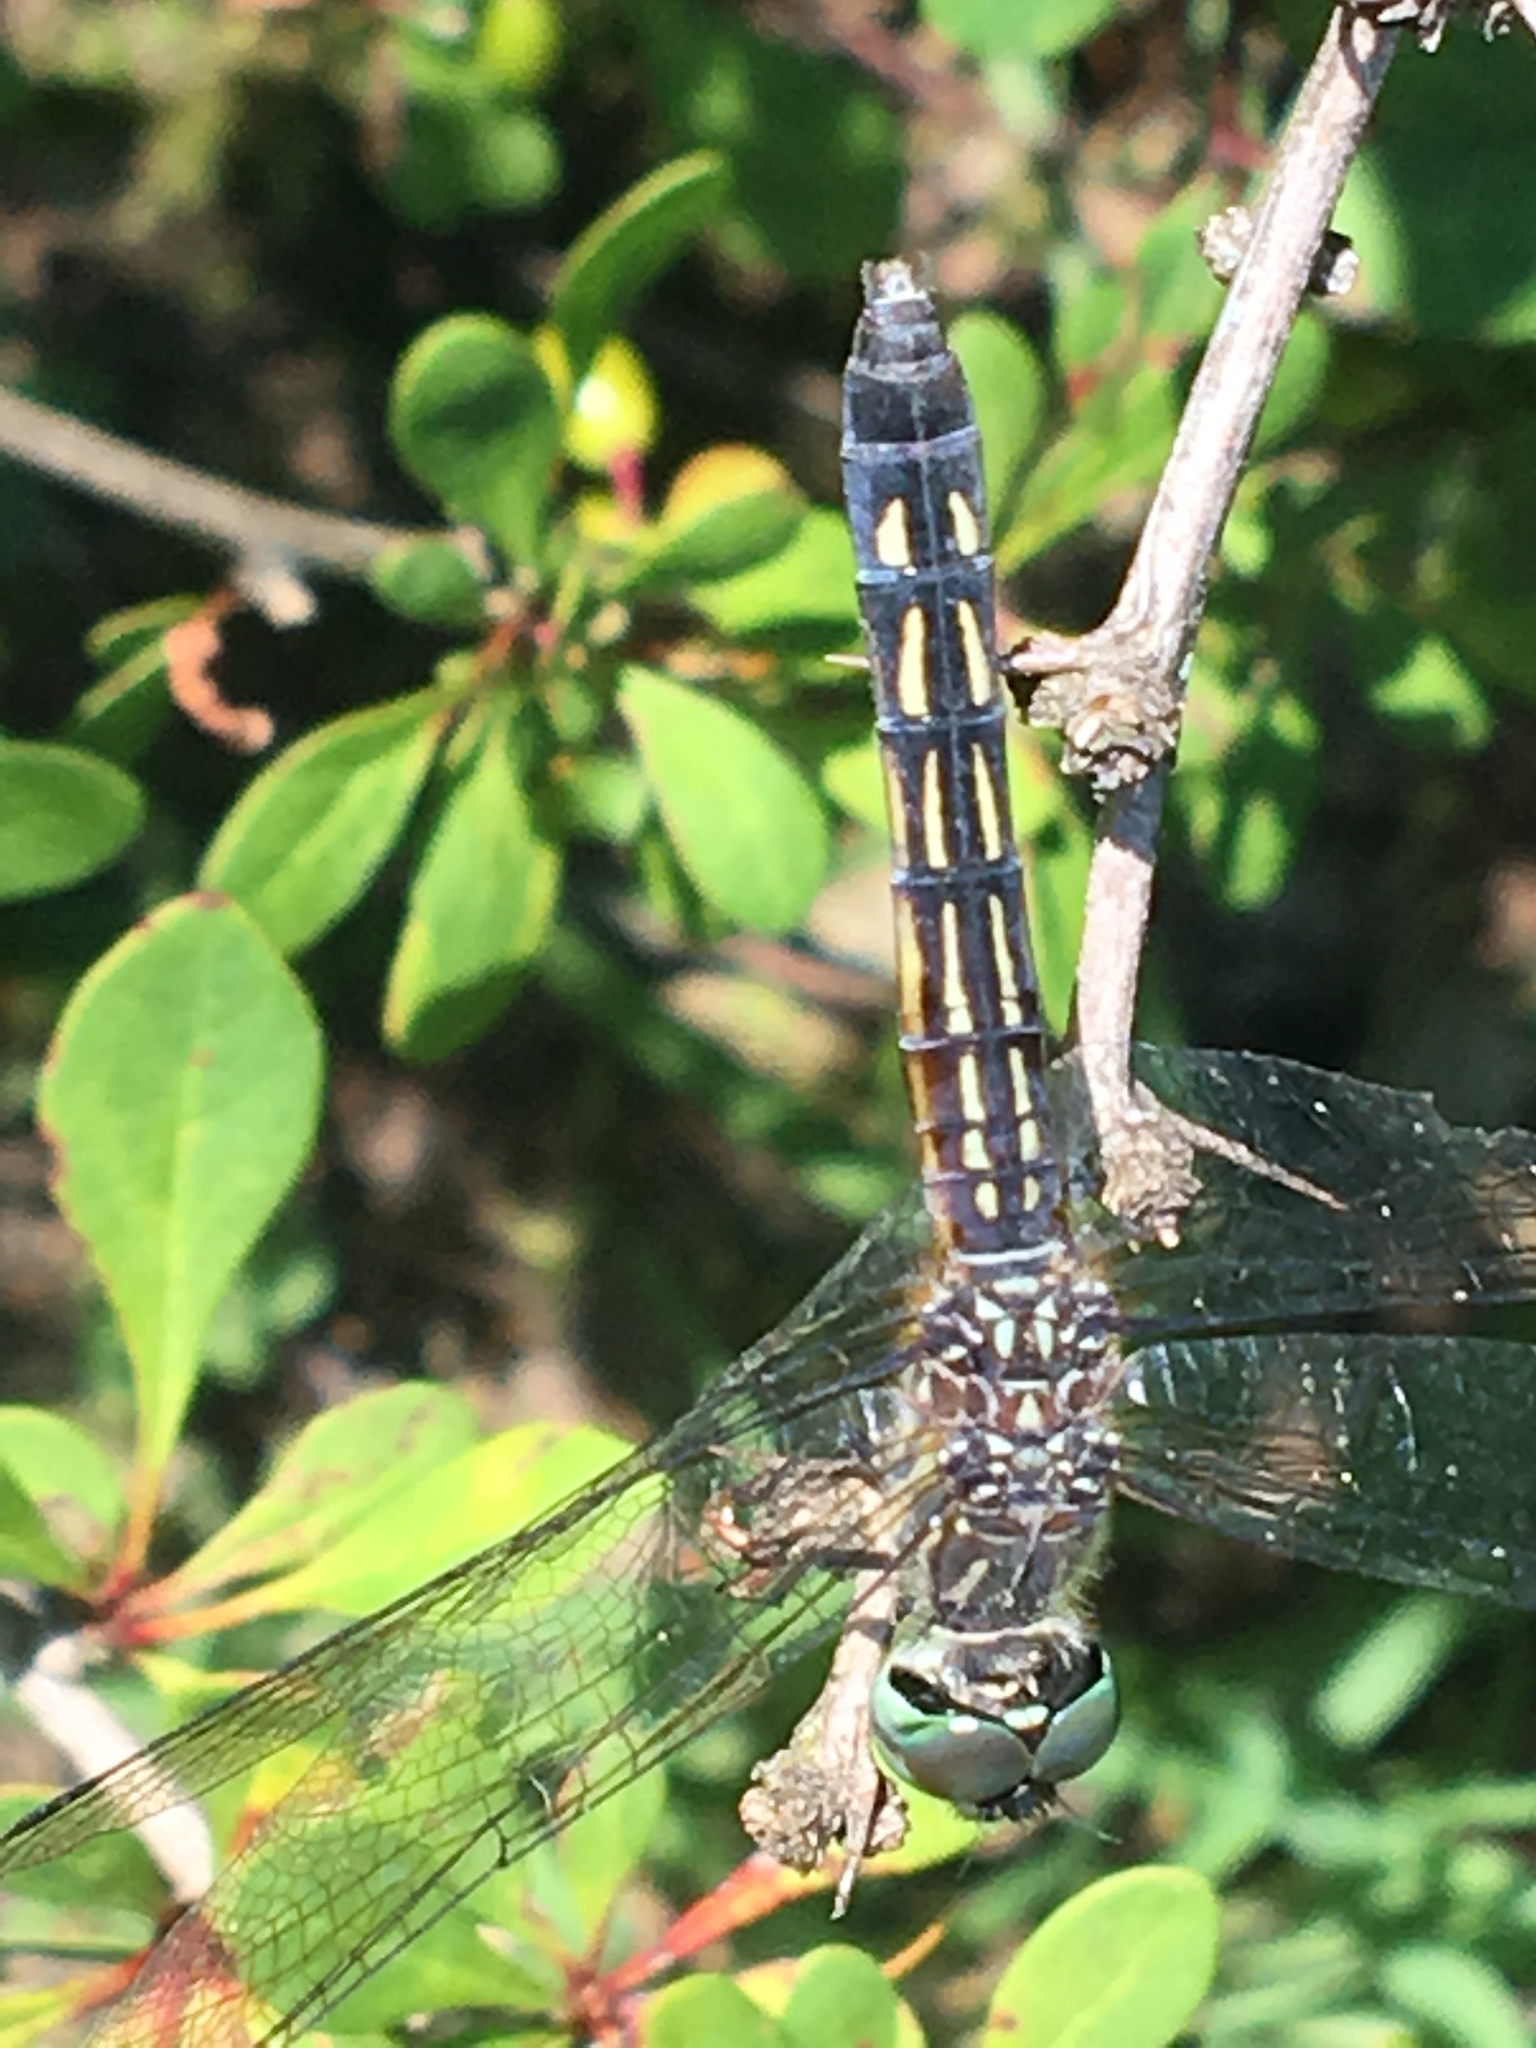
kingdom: Animalia
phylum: Arthropoda
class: Insecta
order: Odonata
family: Libellulidae
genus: Pachydiplax
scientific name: Pachydiplax longipennis
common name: Blue dasher
